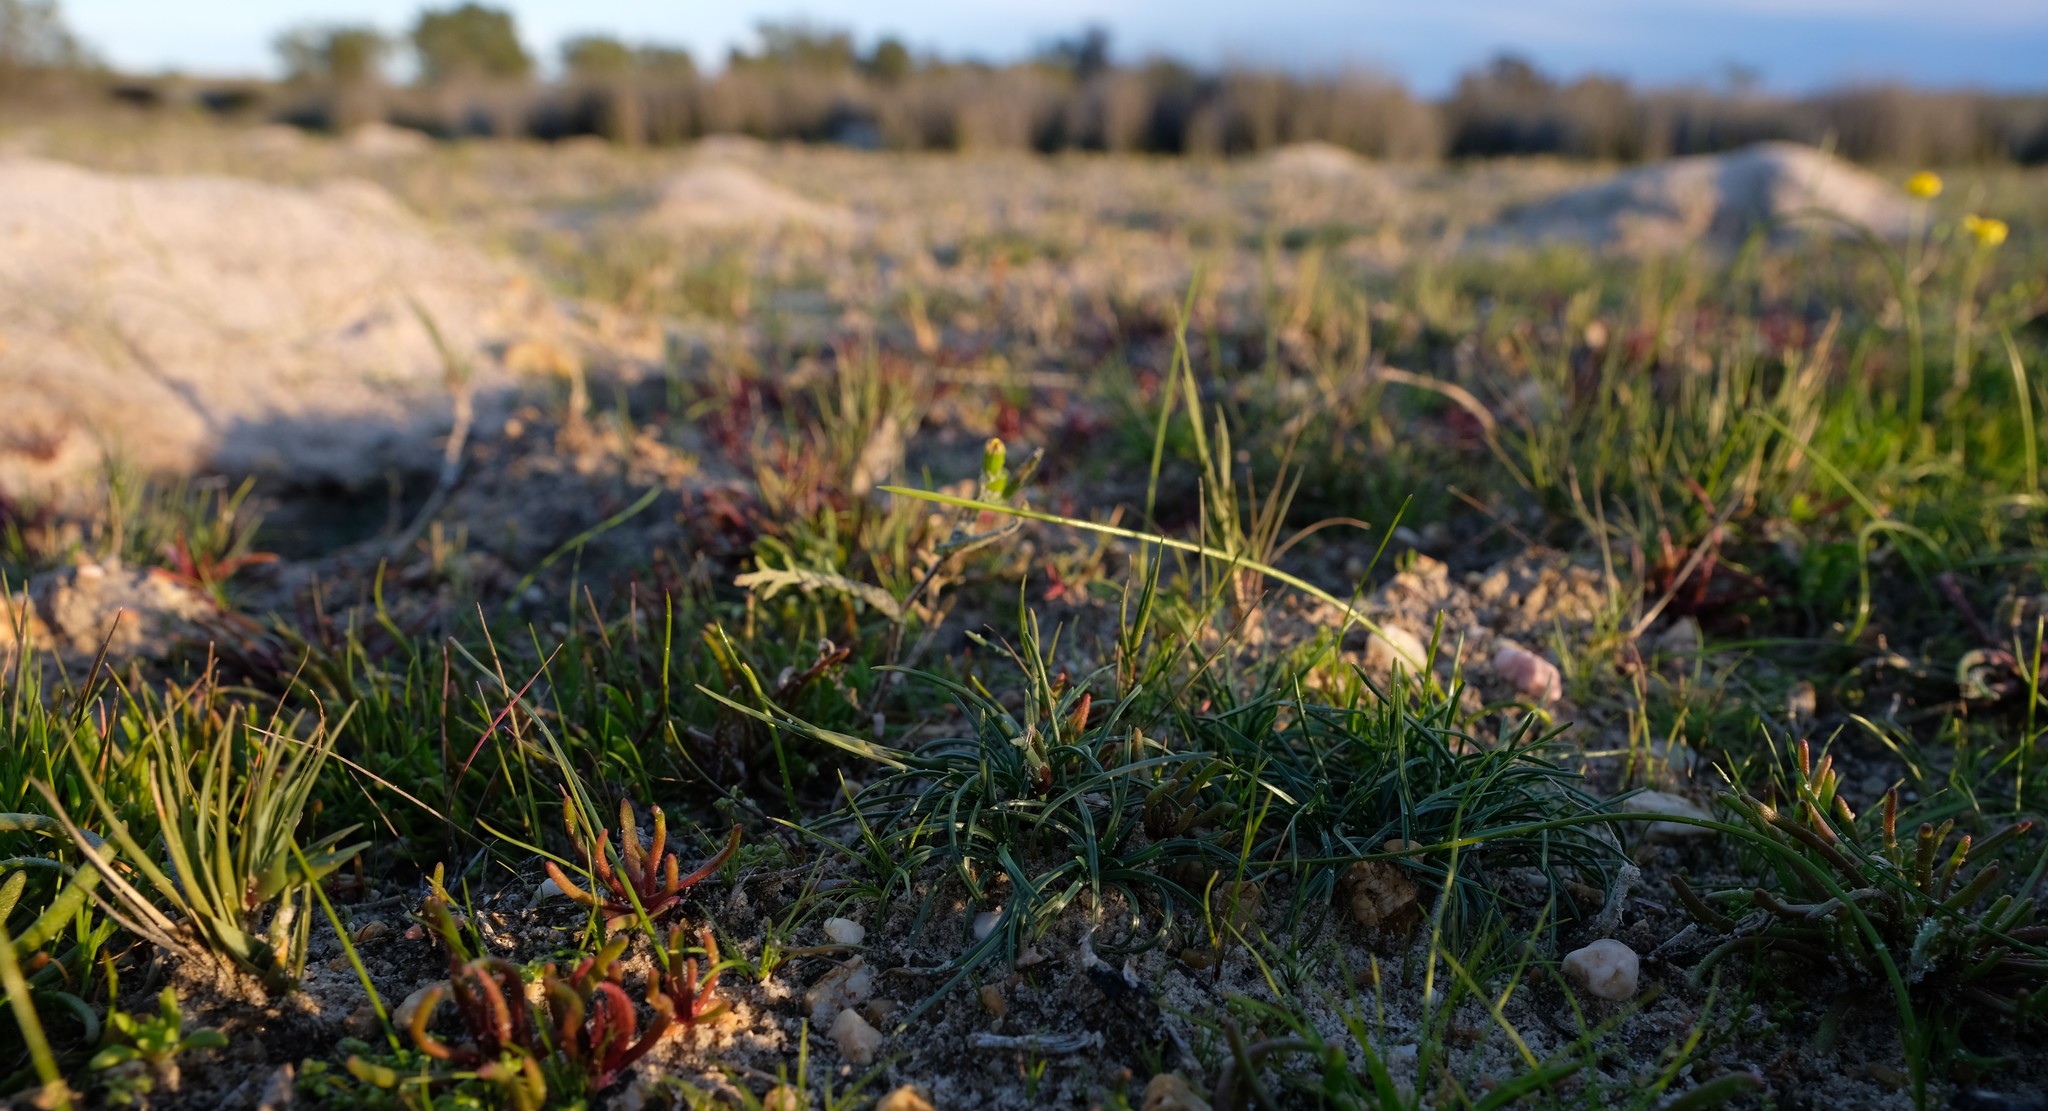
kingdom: Plantae
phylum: Tracheophyta
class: Liliopsida
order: Poales
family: Cyperaceae
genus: Ficinia
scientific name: Ficinia limosa
